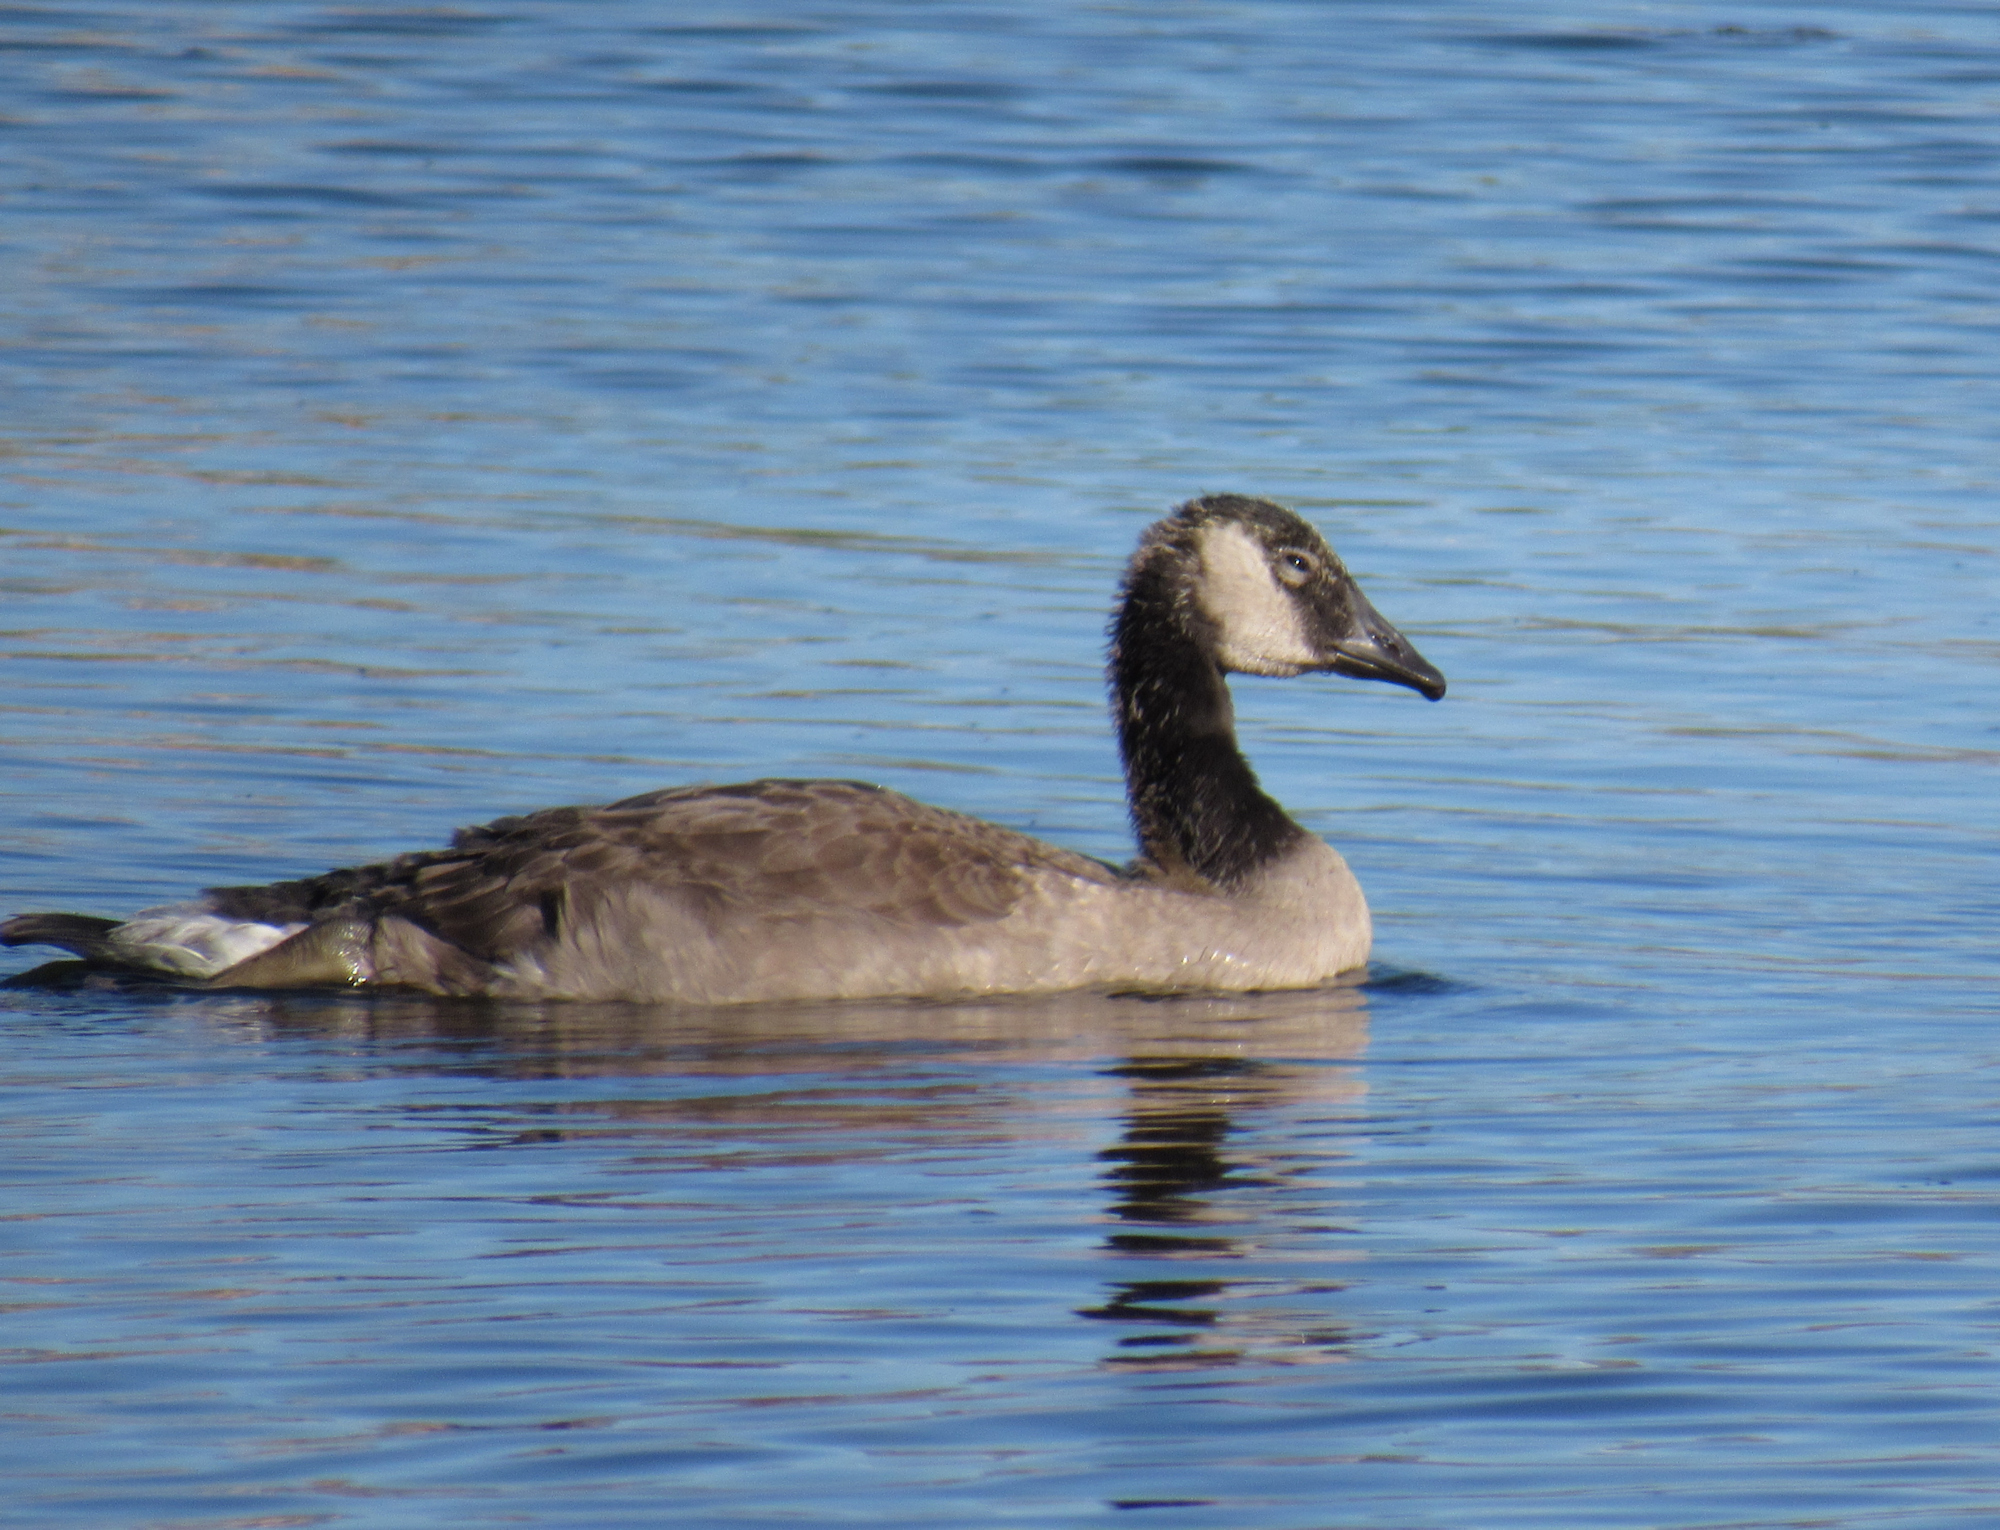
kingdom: Animalia
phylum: Chordata
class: Aves
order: Anseriformes
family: Anatidae
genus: Branta
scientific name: Branta canadensis
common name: Canada goose
